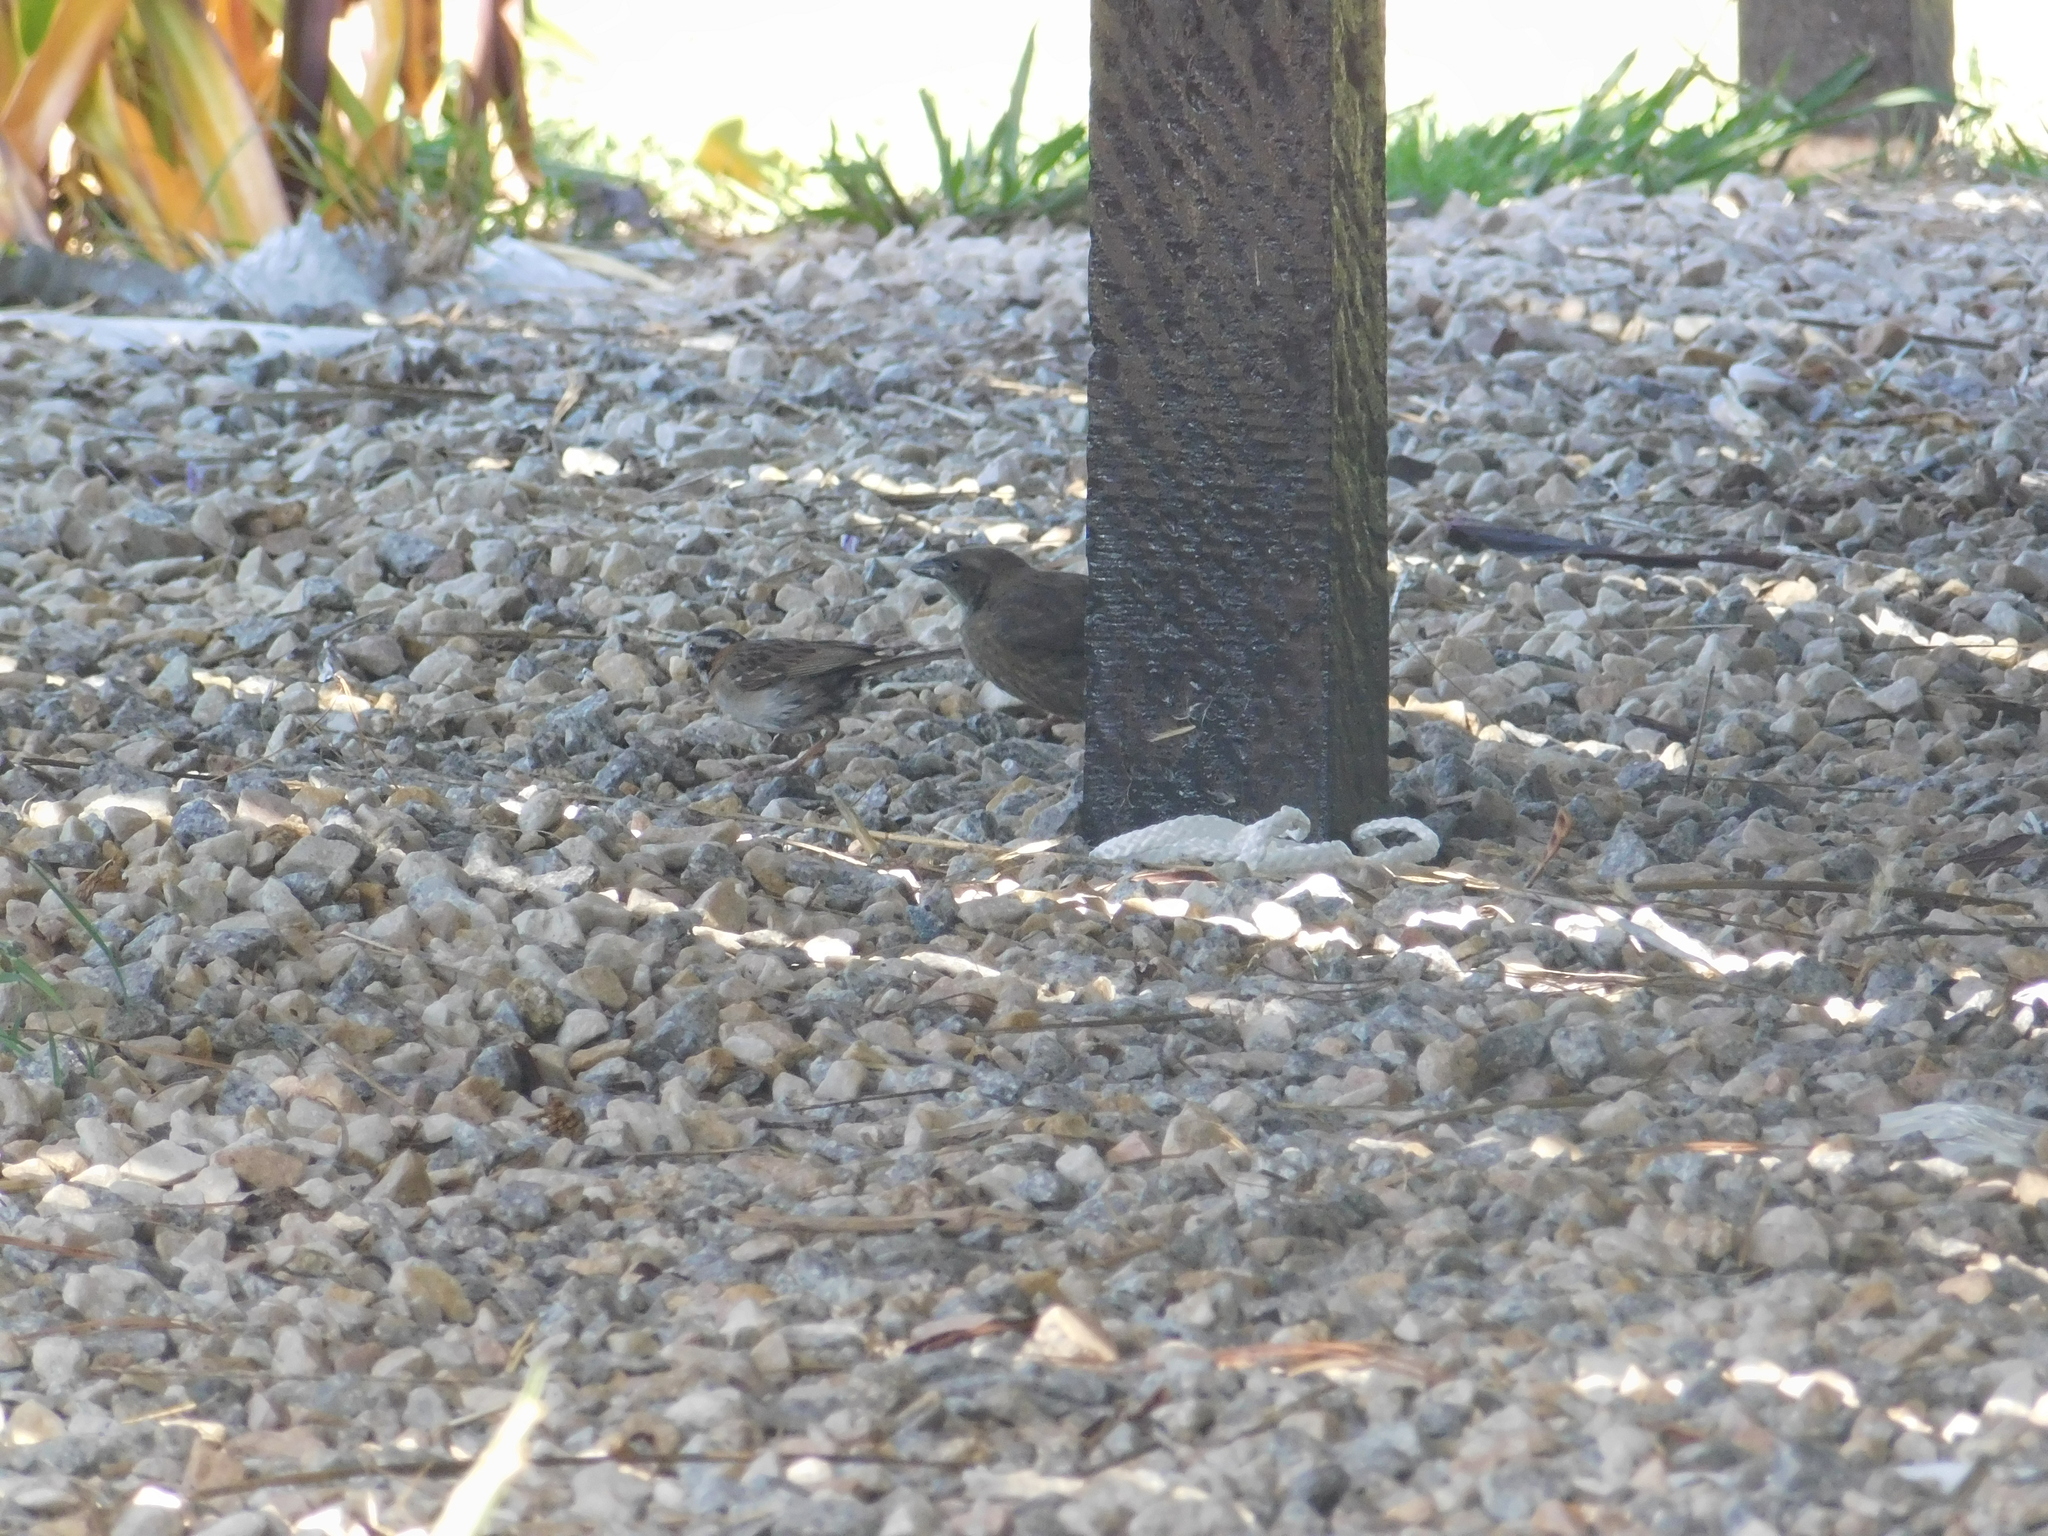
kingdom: Animalia
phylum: Chordata
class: Aves
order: Passeriformes
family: Passerellidae
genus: Zonotrichia
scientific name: Zonotrichia capensis
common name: Rufous-collared sparrow
